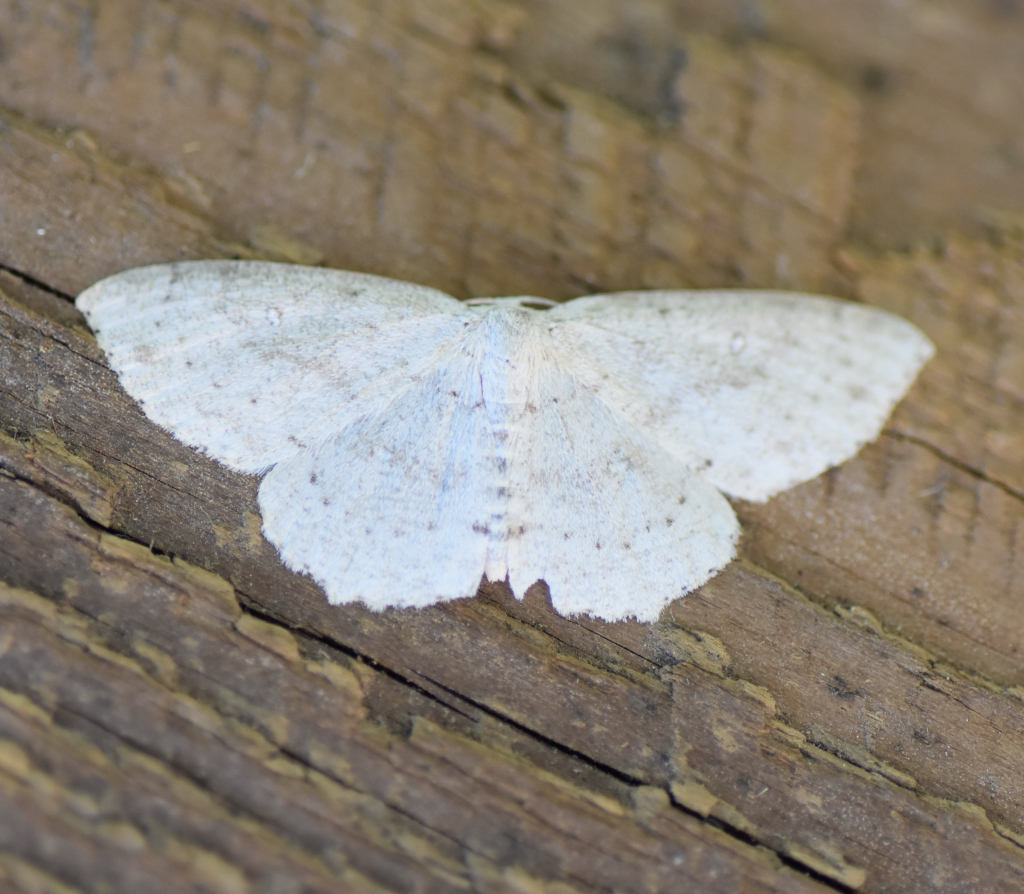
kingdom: Animalia
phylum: Arthropoda
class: Insecta
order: Lepidoptera
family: Geometridae
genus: Cyclophora
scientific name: Cyclophora pendulinaria
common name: Sweet fern geometer
